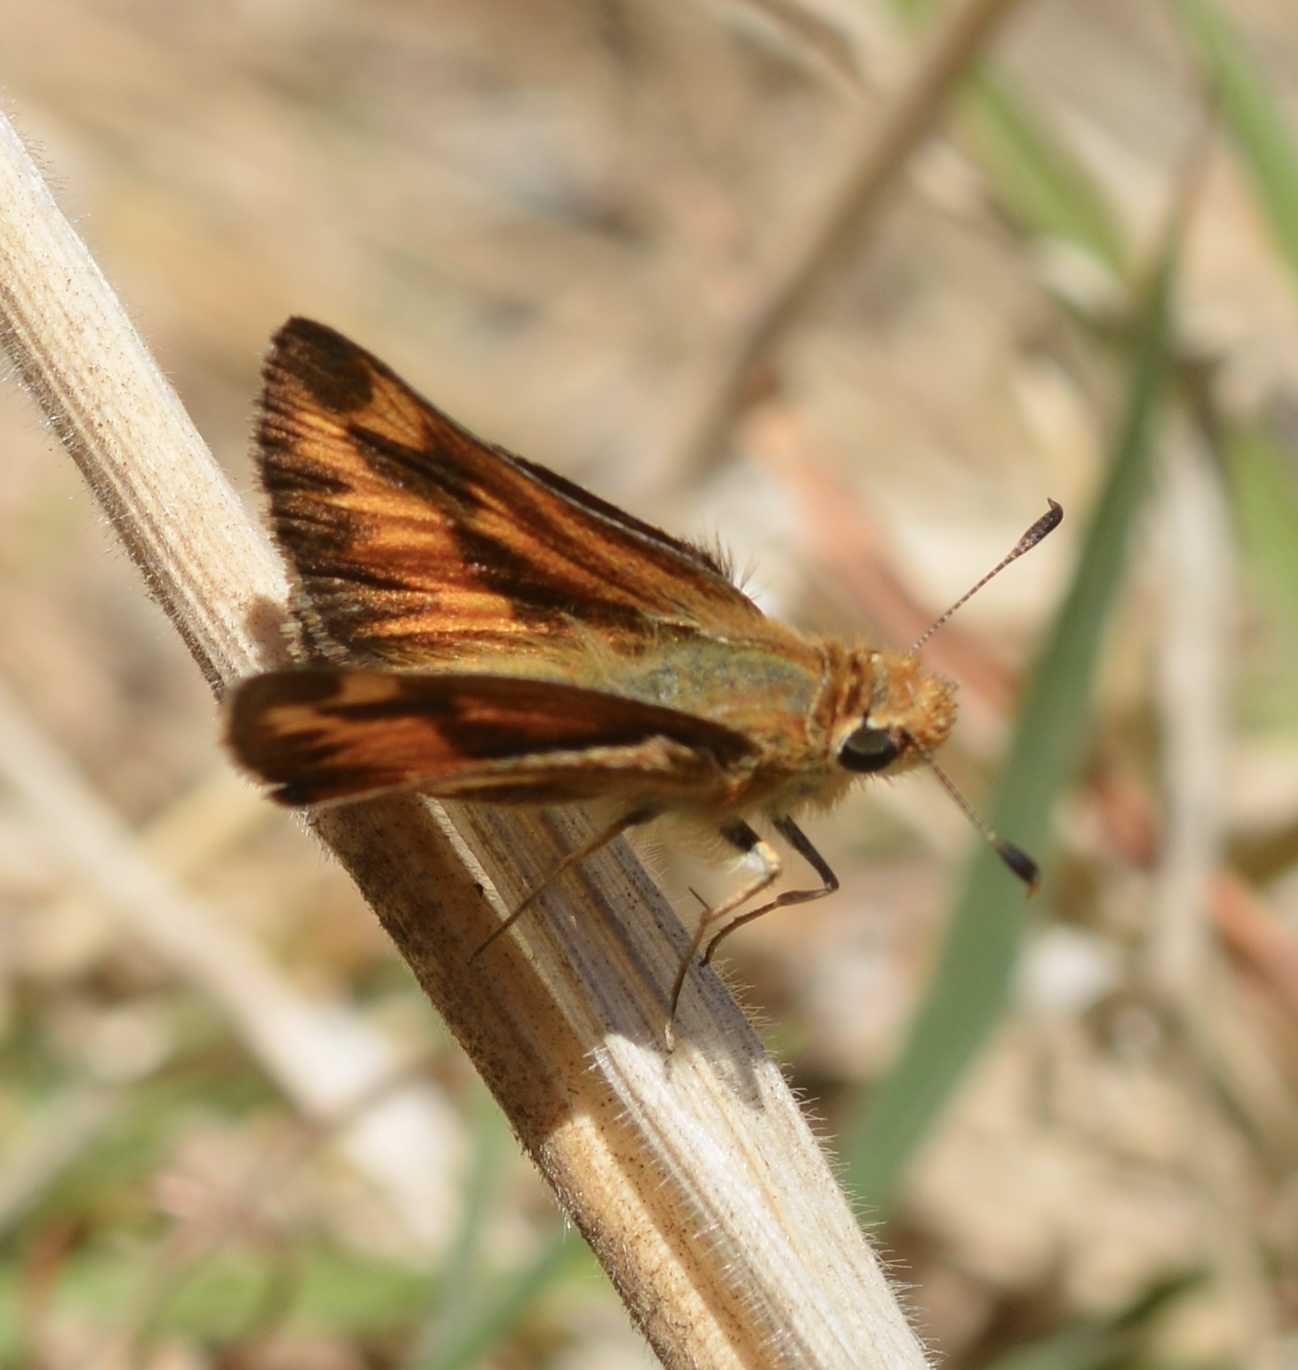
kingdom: Animalia
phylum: Arthropoda
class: Insecta
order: Lepidoptera
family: Hesperiidae
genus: Ochlodes
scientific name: Ochlodes sylvanoides
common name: Woodland skipper
